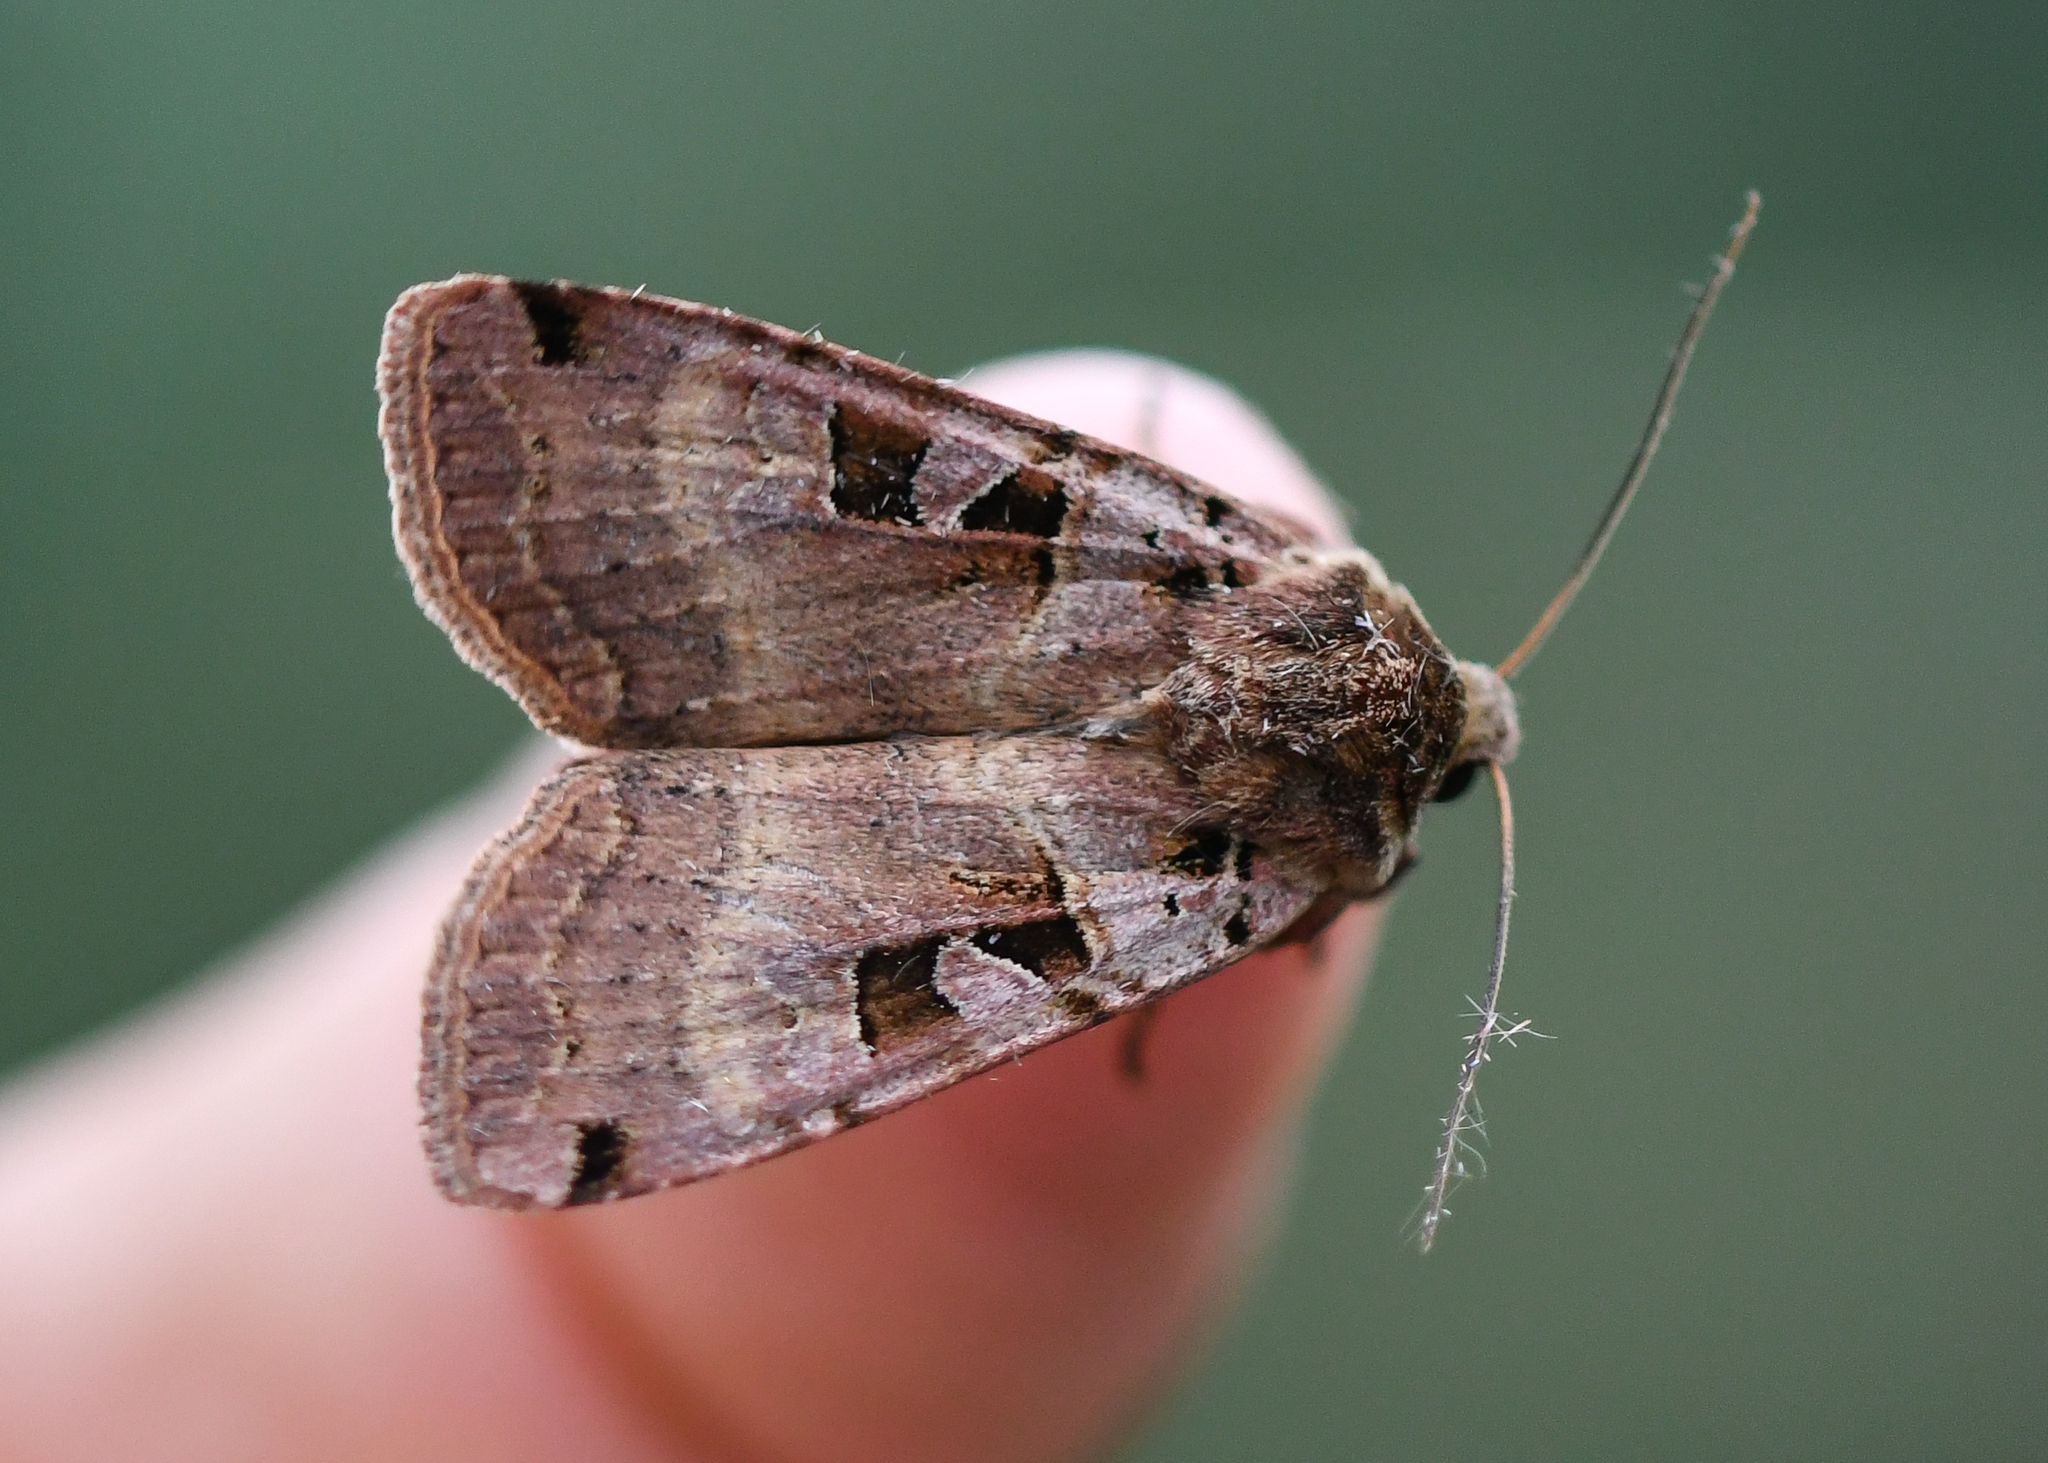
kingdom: Animalia
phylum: Arthropoda
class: Insecta
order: Lepidoptera
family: Noctuidae
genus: Xestia
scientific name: Xestia triangulum
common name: Double square-spot
